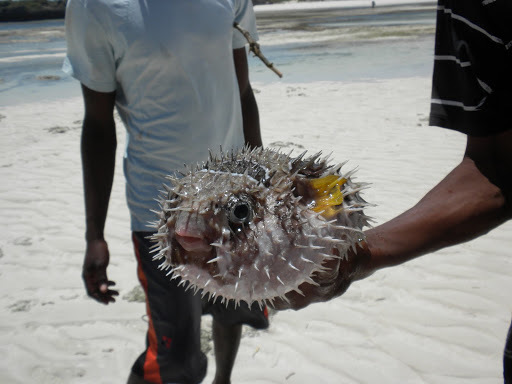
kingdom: Animalia
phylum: Chordata
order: Tetraodontiformes
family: Diodontidae
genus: Diodon
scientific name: Diodon liturosus
